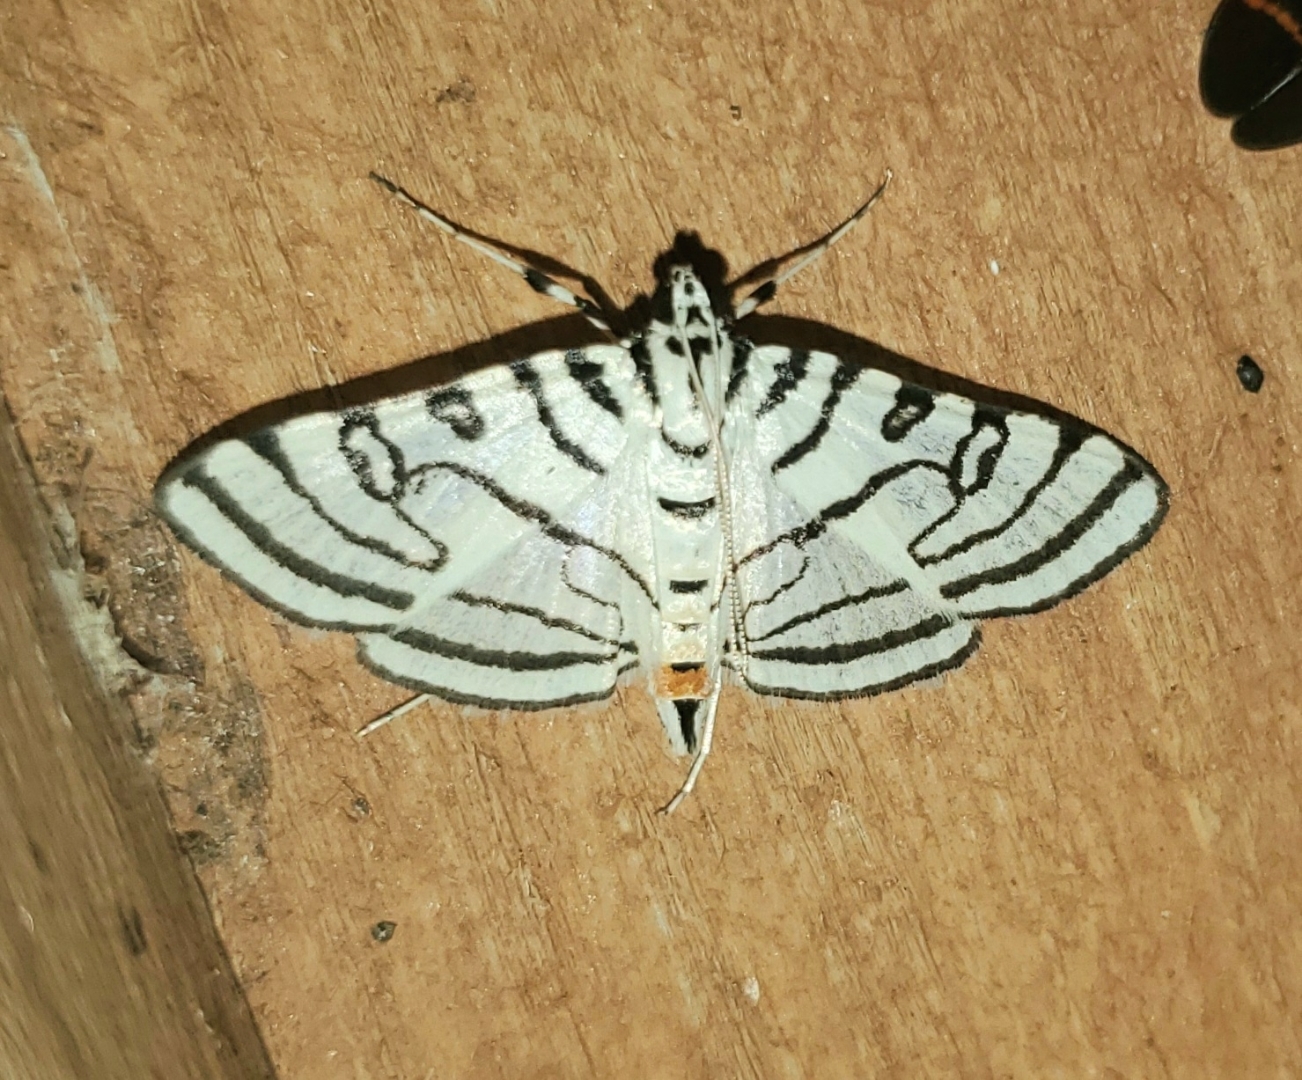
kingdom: Animalia
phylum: Arthropoda
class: Insecta
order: Lepidoptera
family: Crambidae
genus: Conchylodes
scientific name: Conchylodes concinnalis
